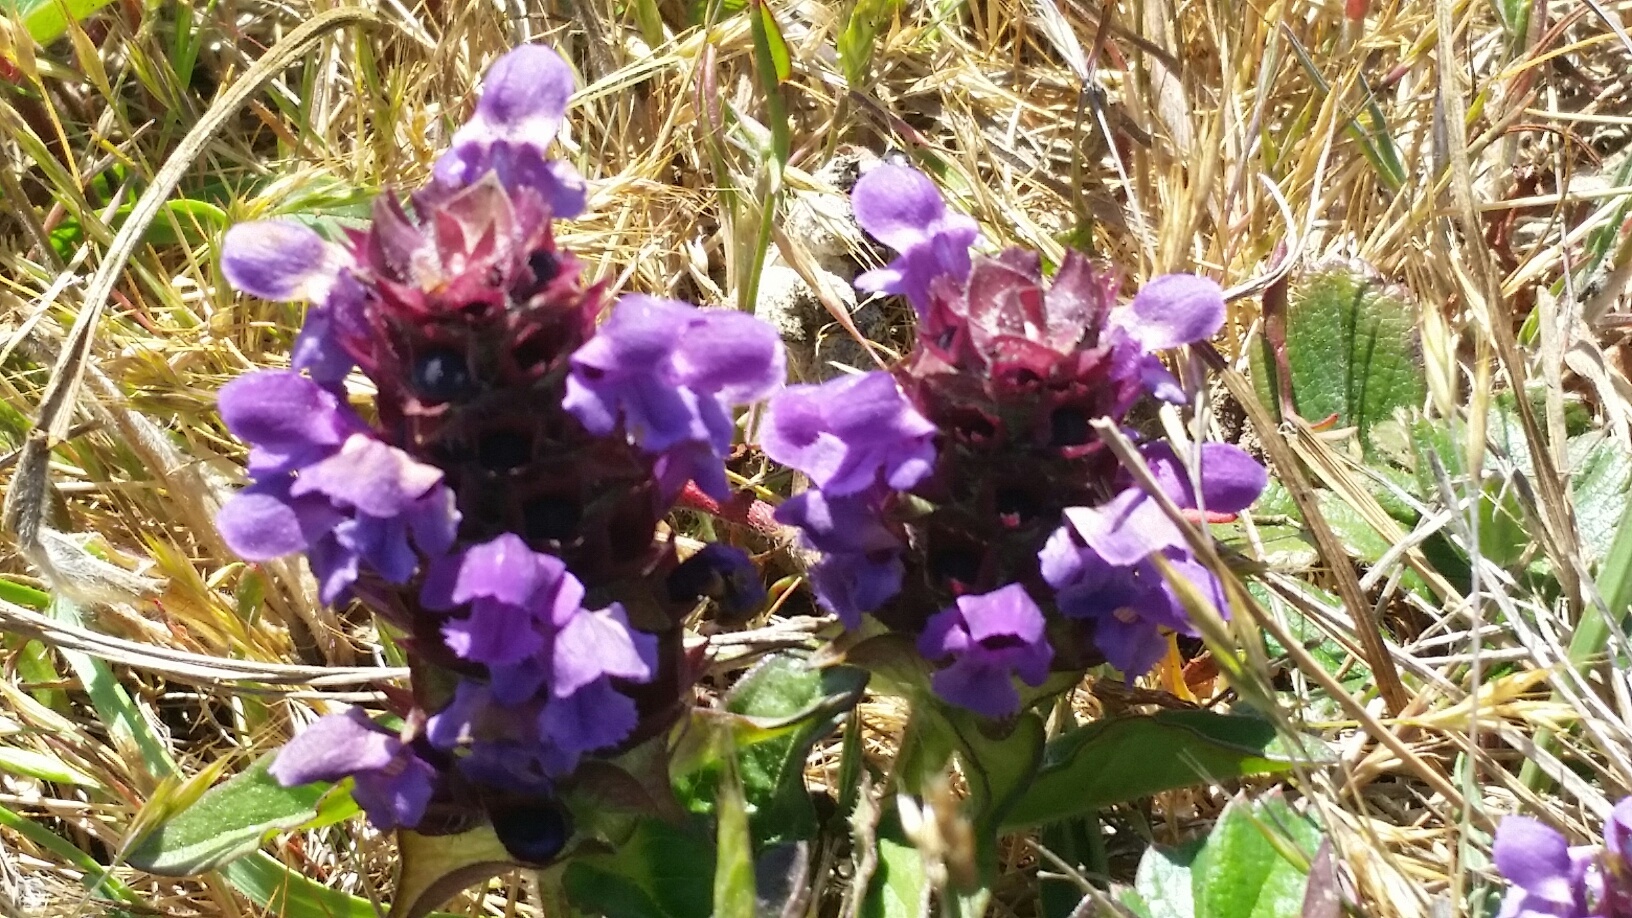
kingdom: Plantae
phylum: Tracheophyta
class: Magnoliopsida
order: Lamiales
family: Lamiaceae
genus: Prunella
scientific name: Prunella vulgaris
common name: Heal-all
